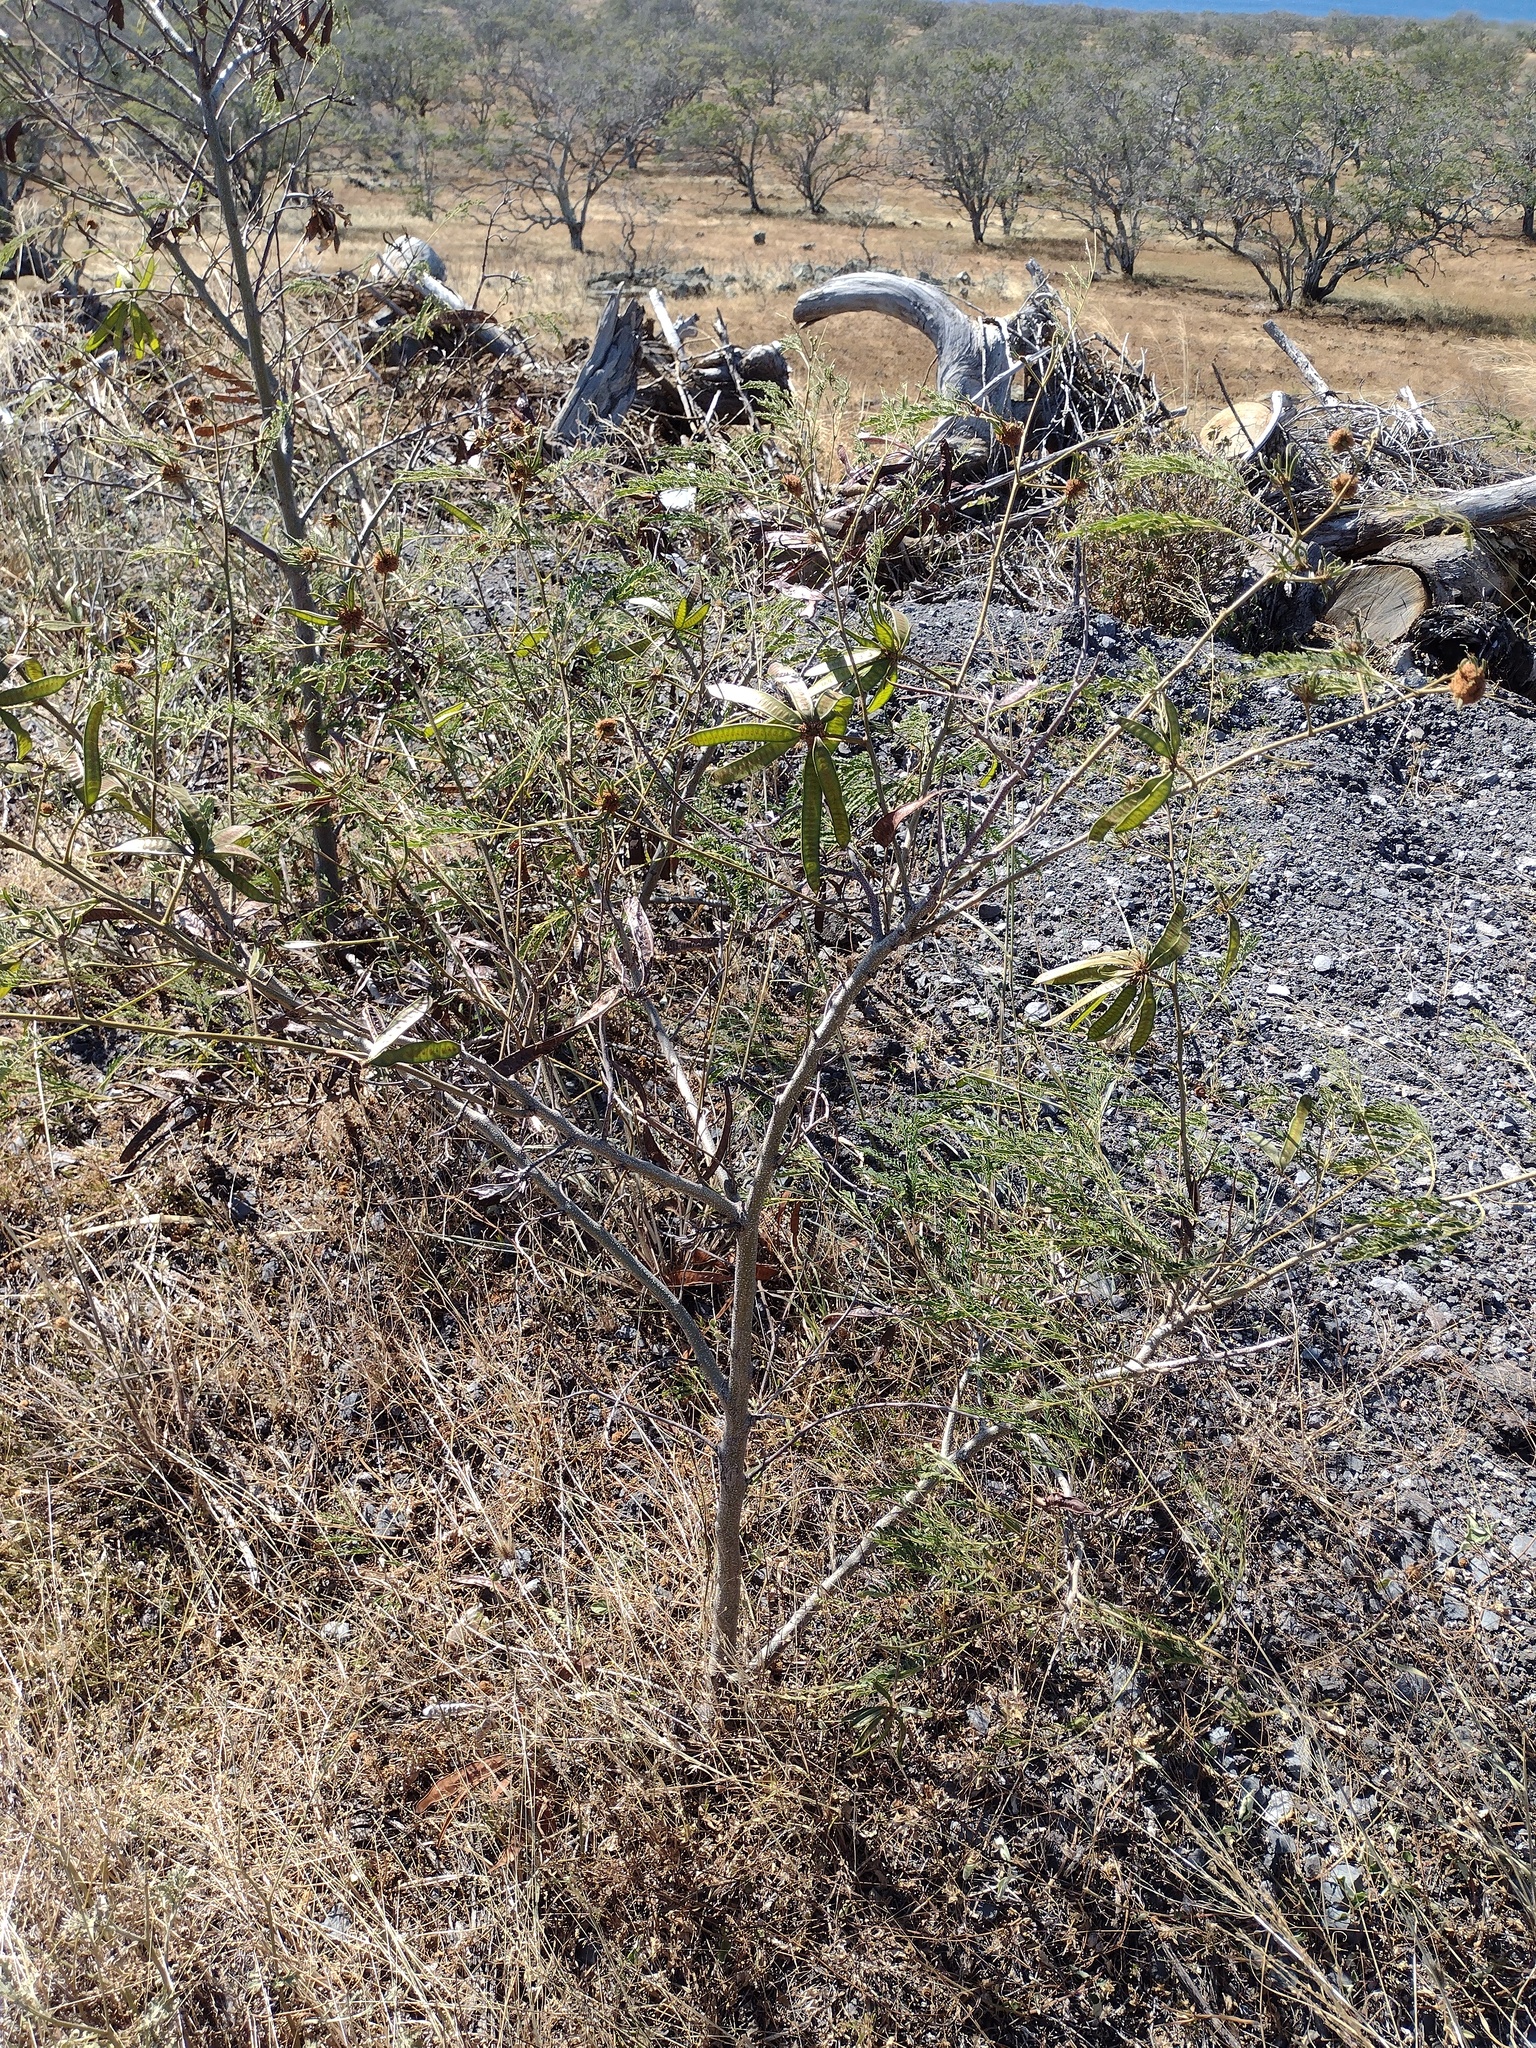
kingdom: Plantae
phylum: Tracheophyta
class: Magnoliopsida
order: Fabales
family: Fabaceae
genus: Leucaena
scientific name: Leucaena leucocephala
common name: White leadtree
